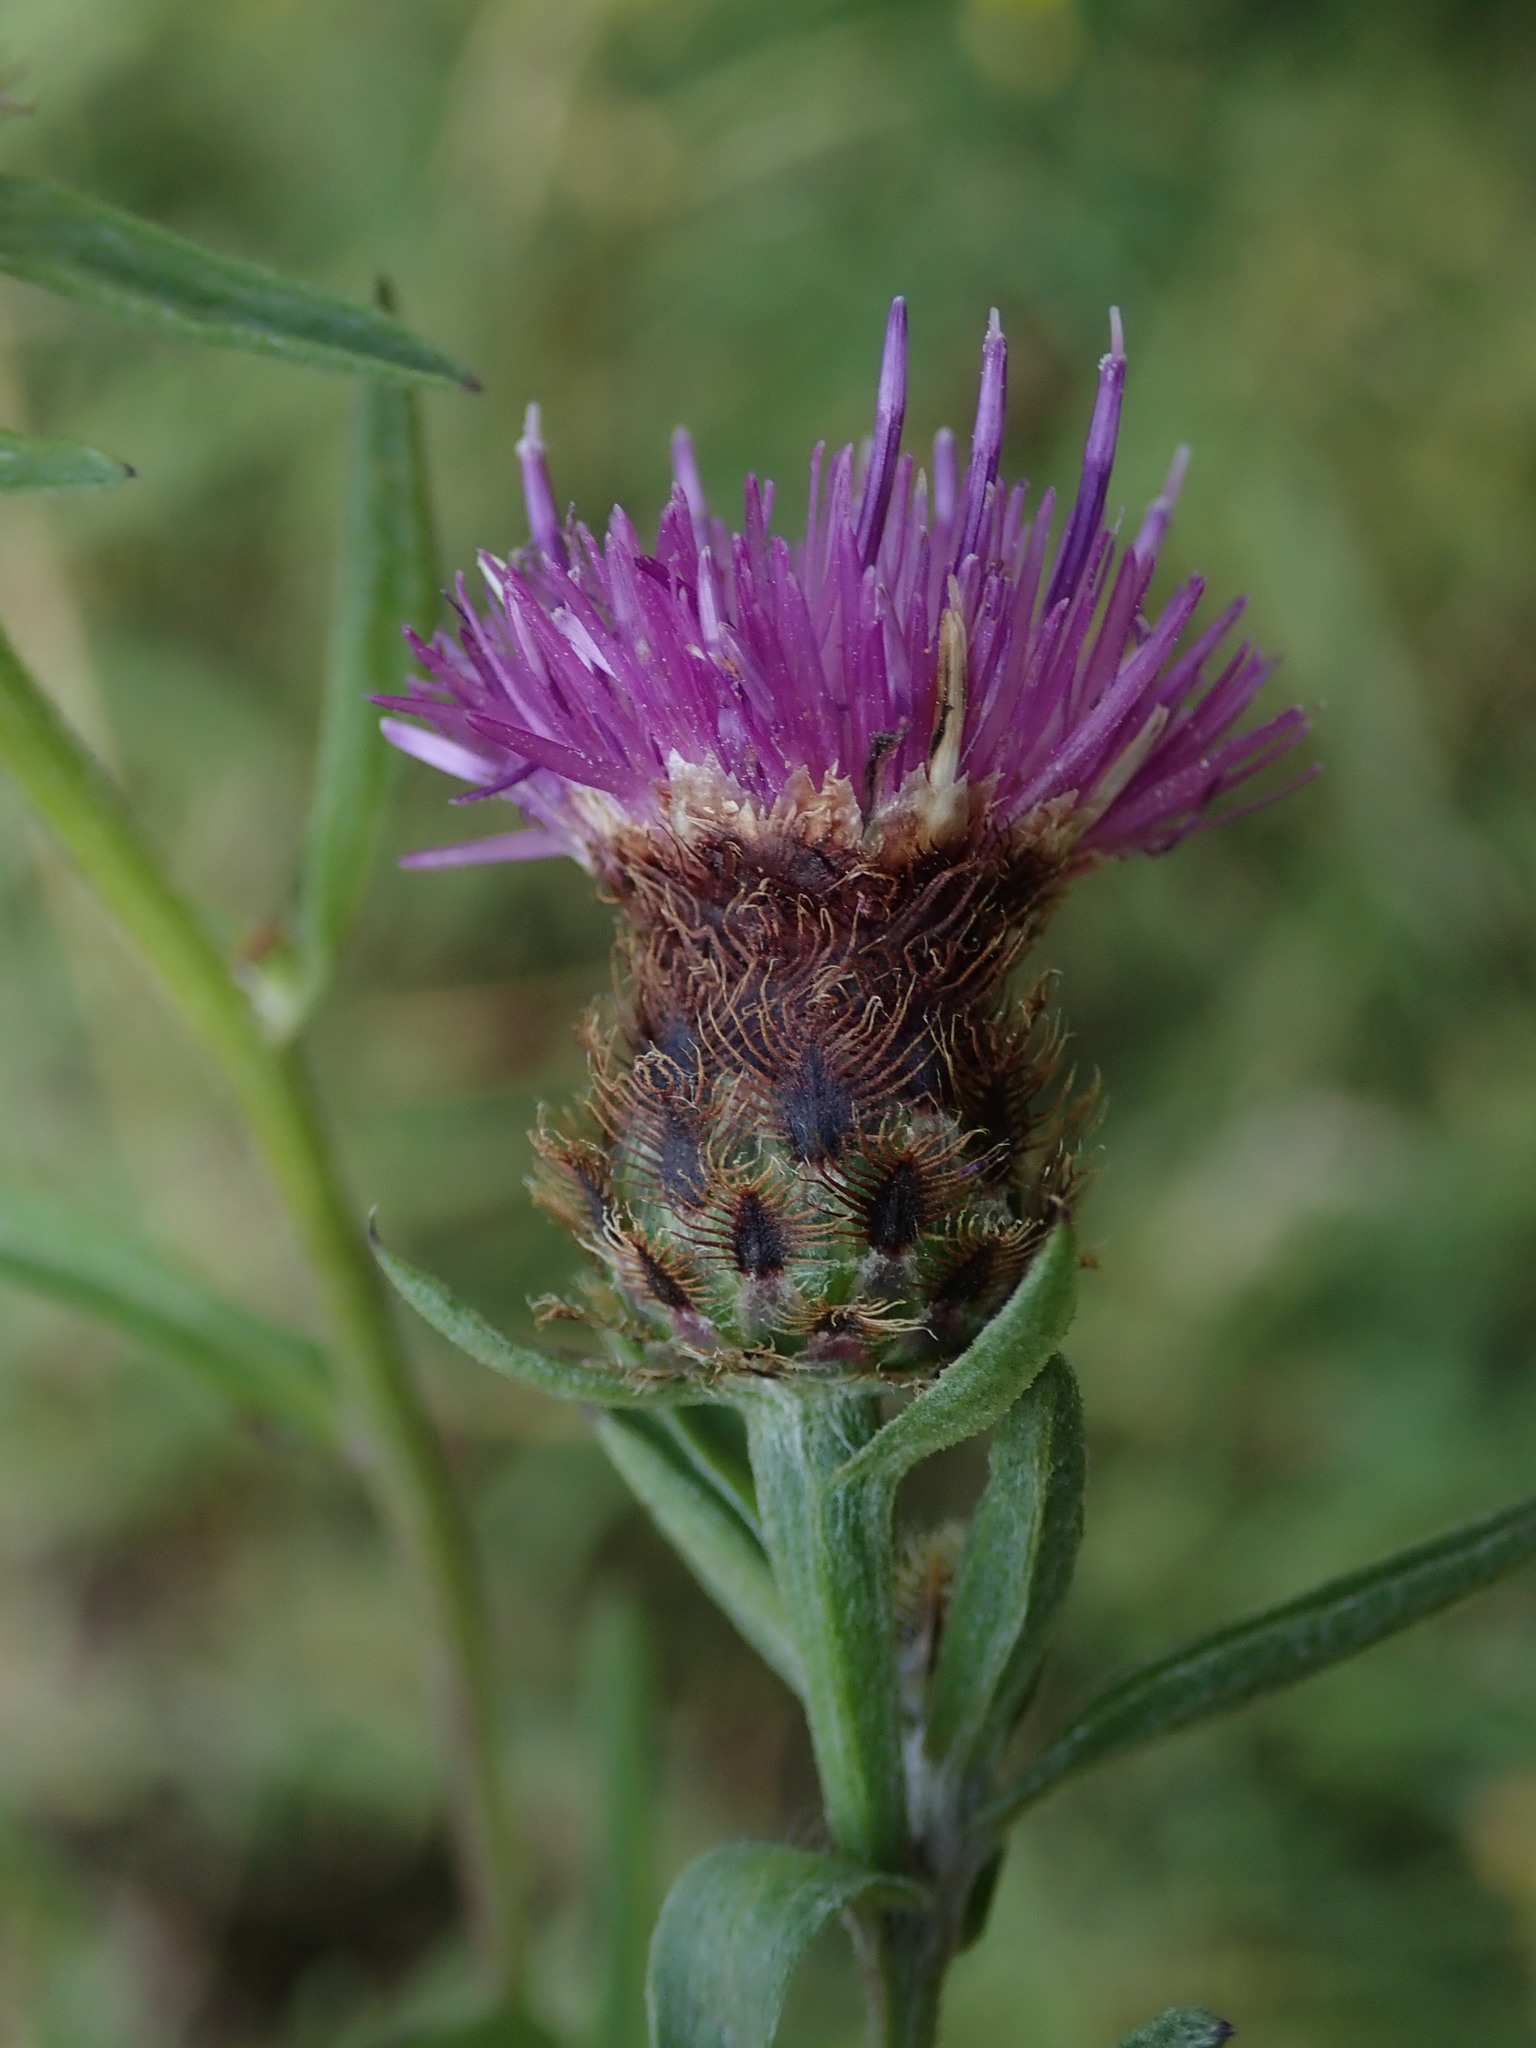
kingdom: Plantae
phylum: Tracheophyta
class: Magnoliopsida
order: Asterales
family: Asteraceae
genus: Centaurea
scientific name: Centaurea nigra
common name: Lesser knapweed
